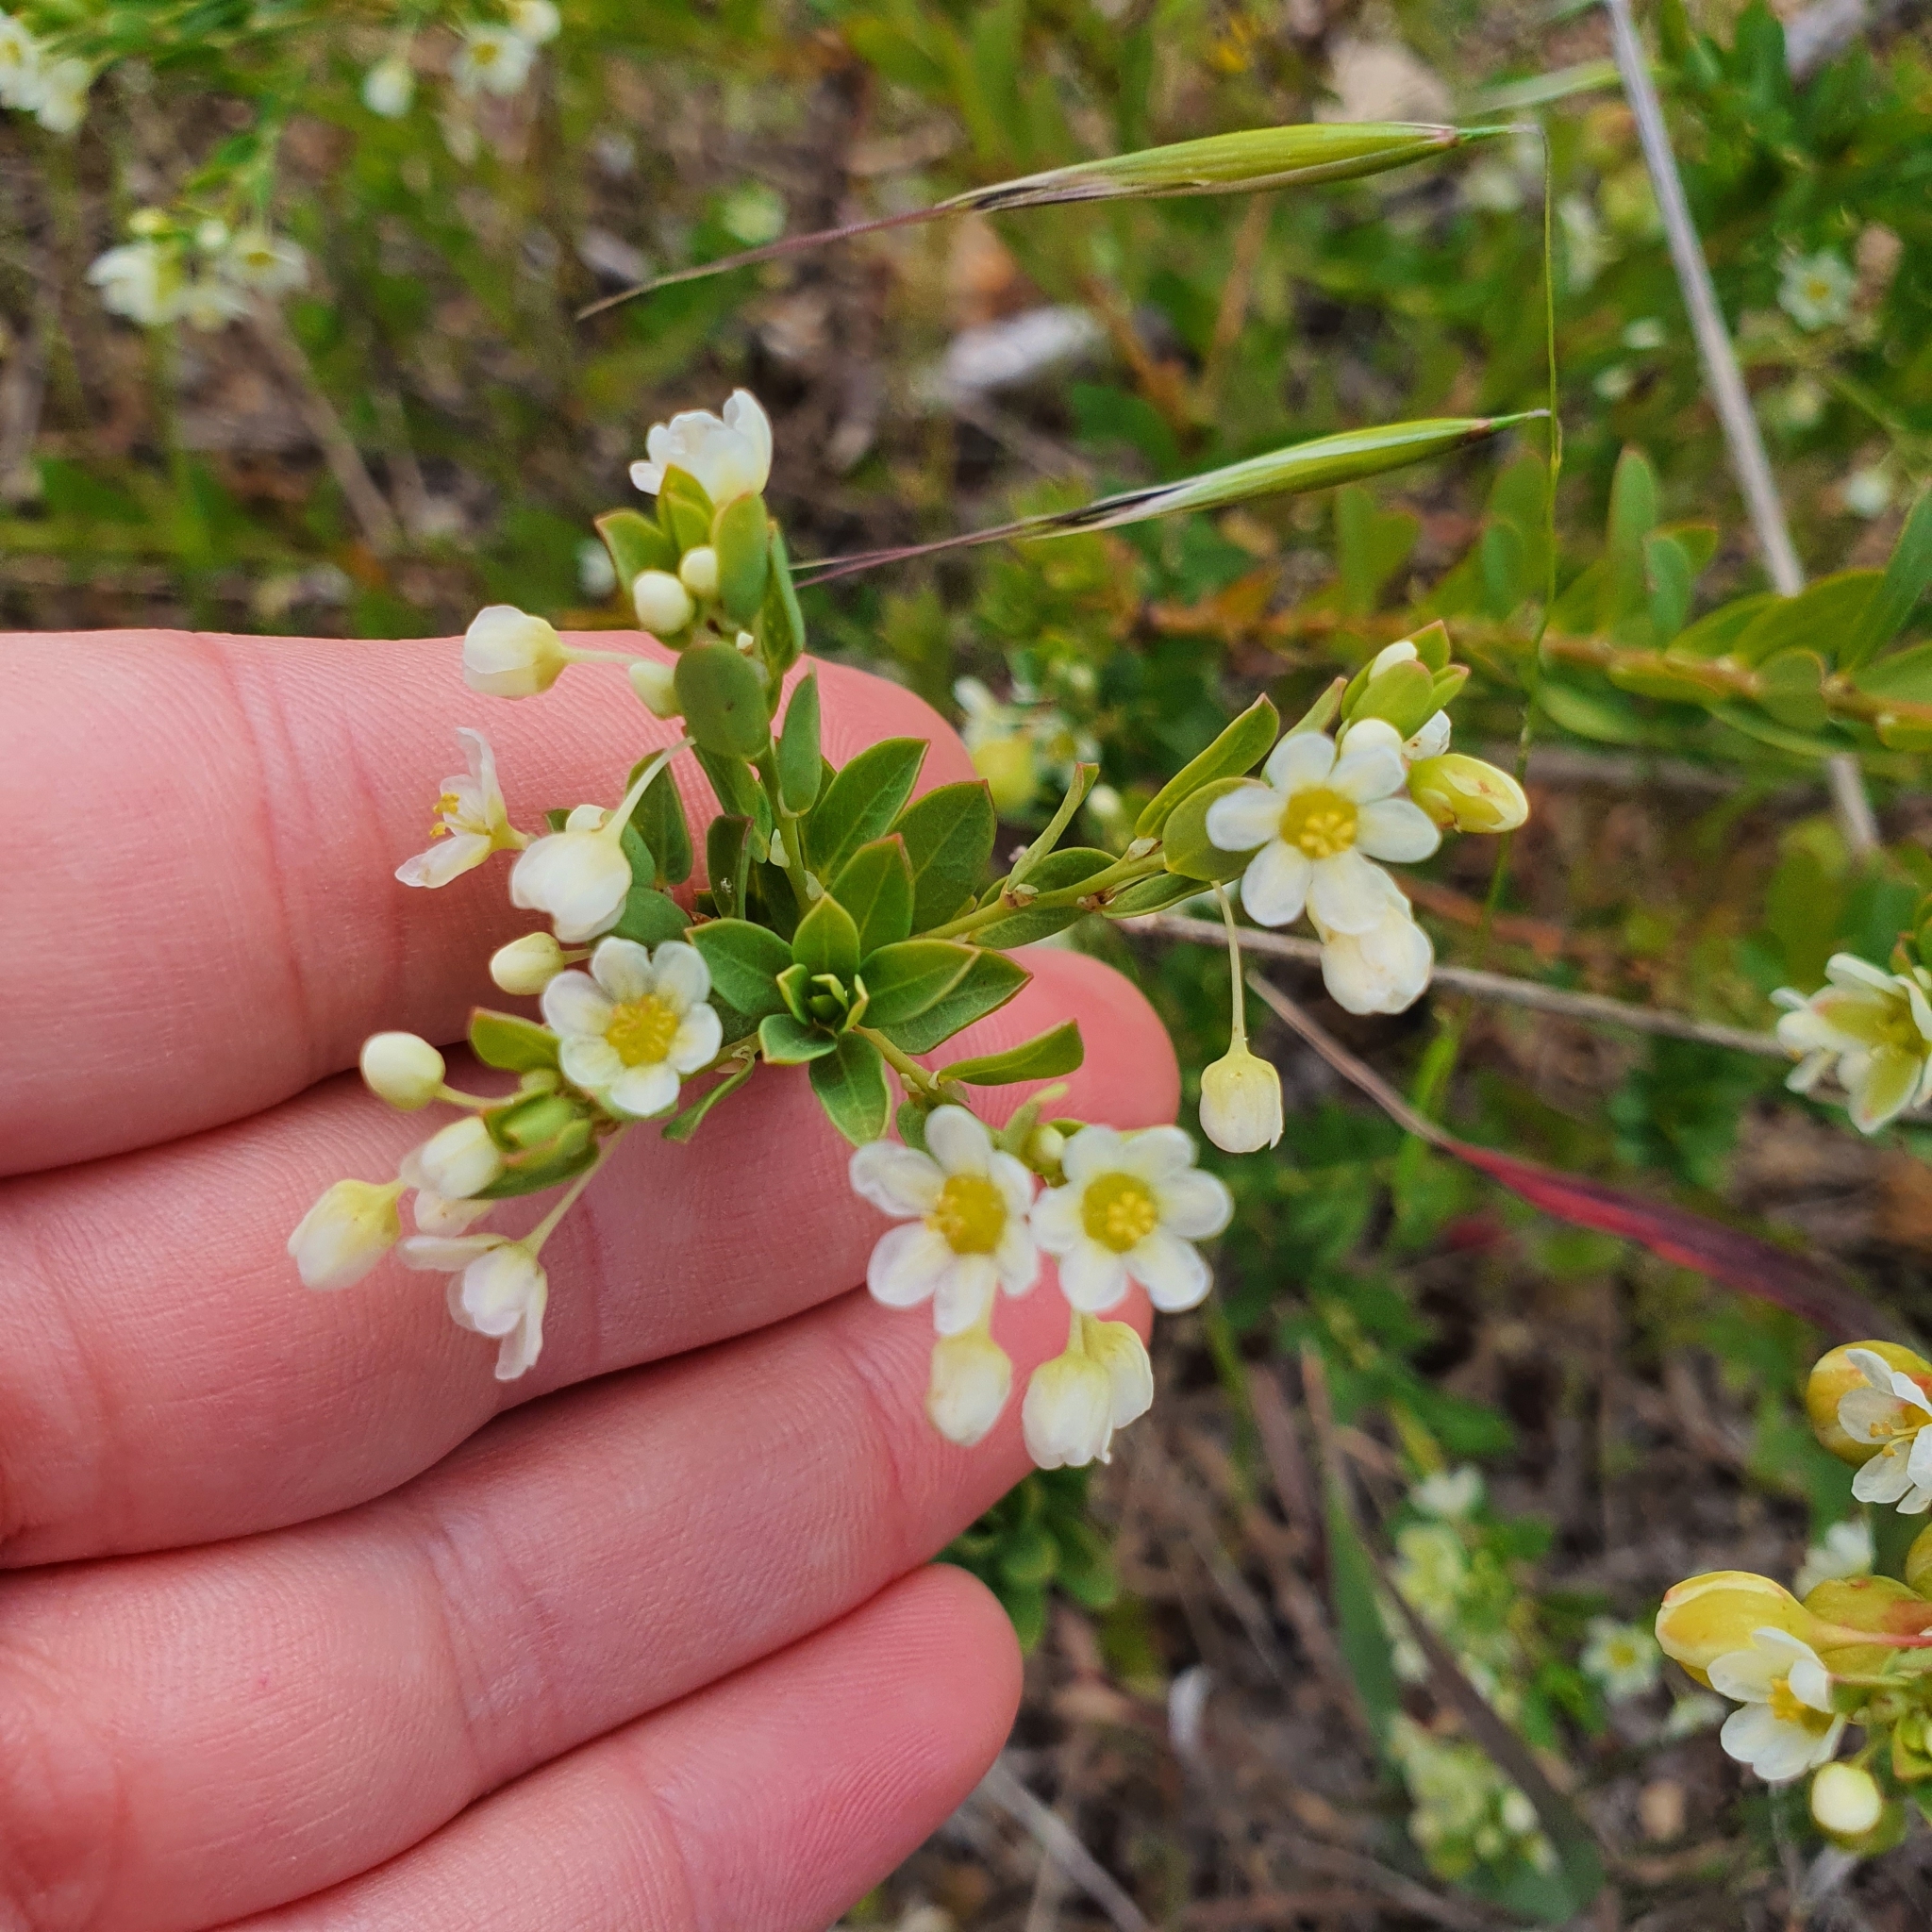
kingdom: Plantae
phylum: Tracheophyta
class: Magnoliopsida
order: Malpighiales
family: Phyllanthaceae
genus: Phyllanthus
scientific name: Phyllanthus calycinus
